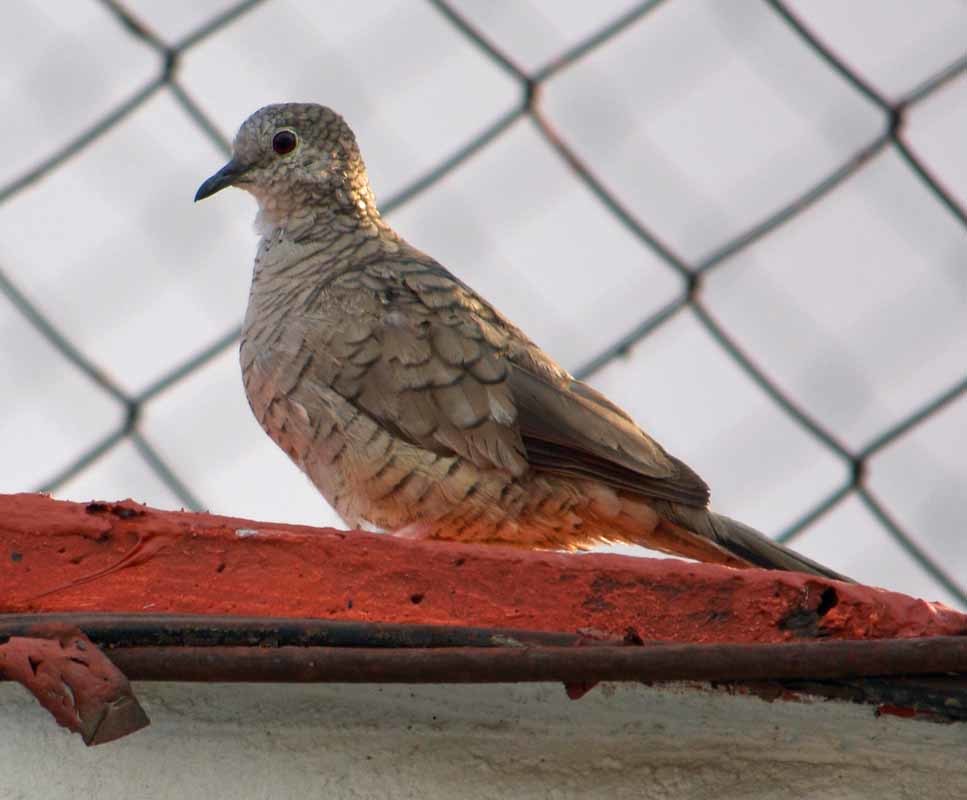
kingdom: Animalia
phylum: Chordata
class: Aves
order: Columbiformes
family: Columbidae
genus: Columbina
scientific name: Columbina inca
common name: Inca dove
